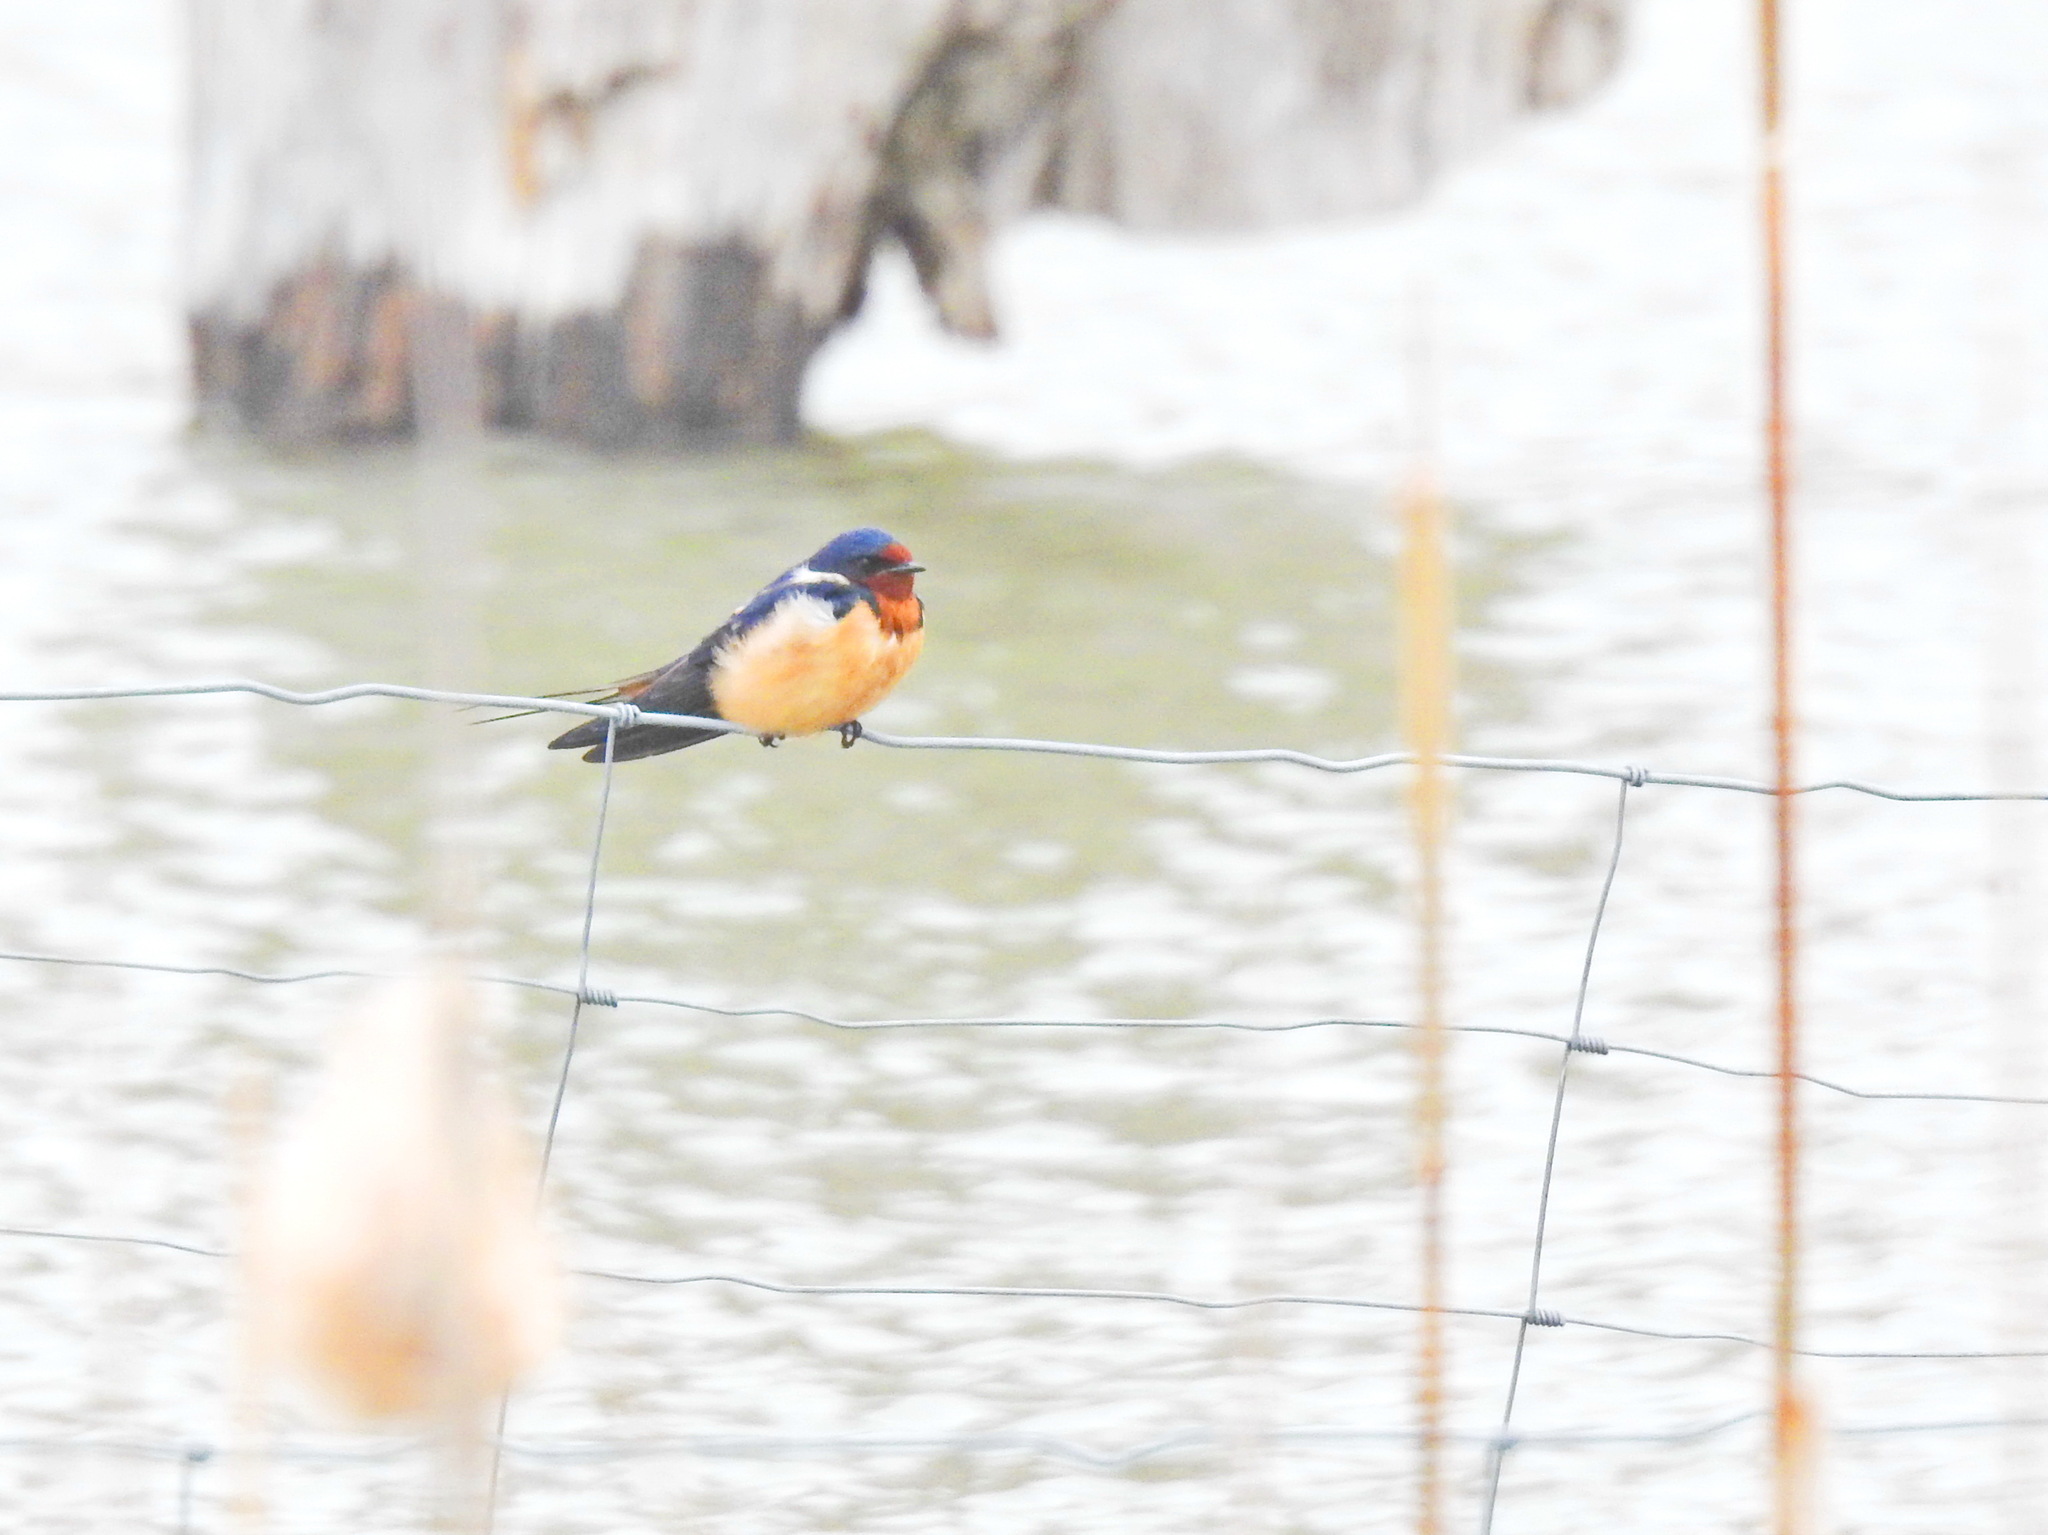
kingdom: Animalia
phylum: Chordata
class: Aves
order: Passeriformes
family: Hirundinidae
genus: Hirundo
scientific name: Hirundo rustica
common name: Barn swallow
